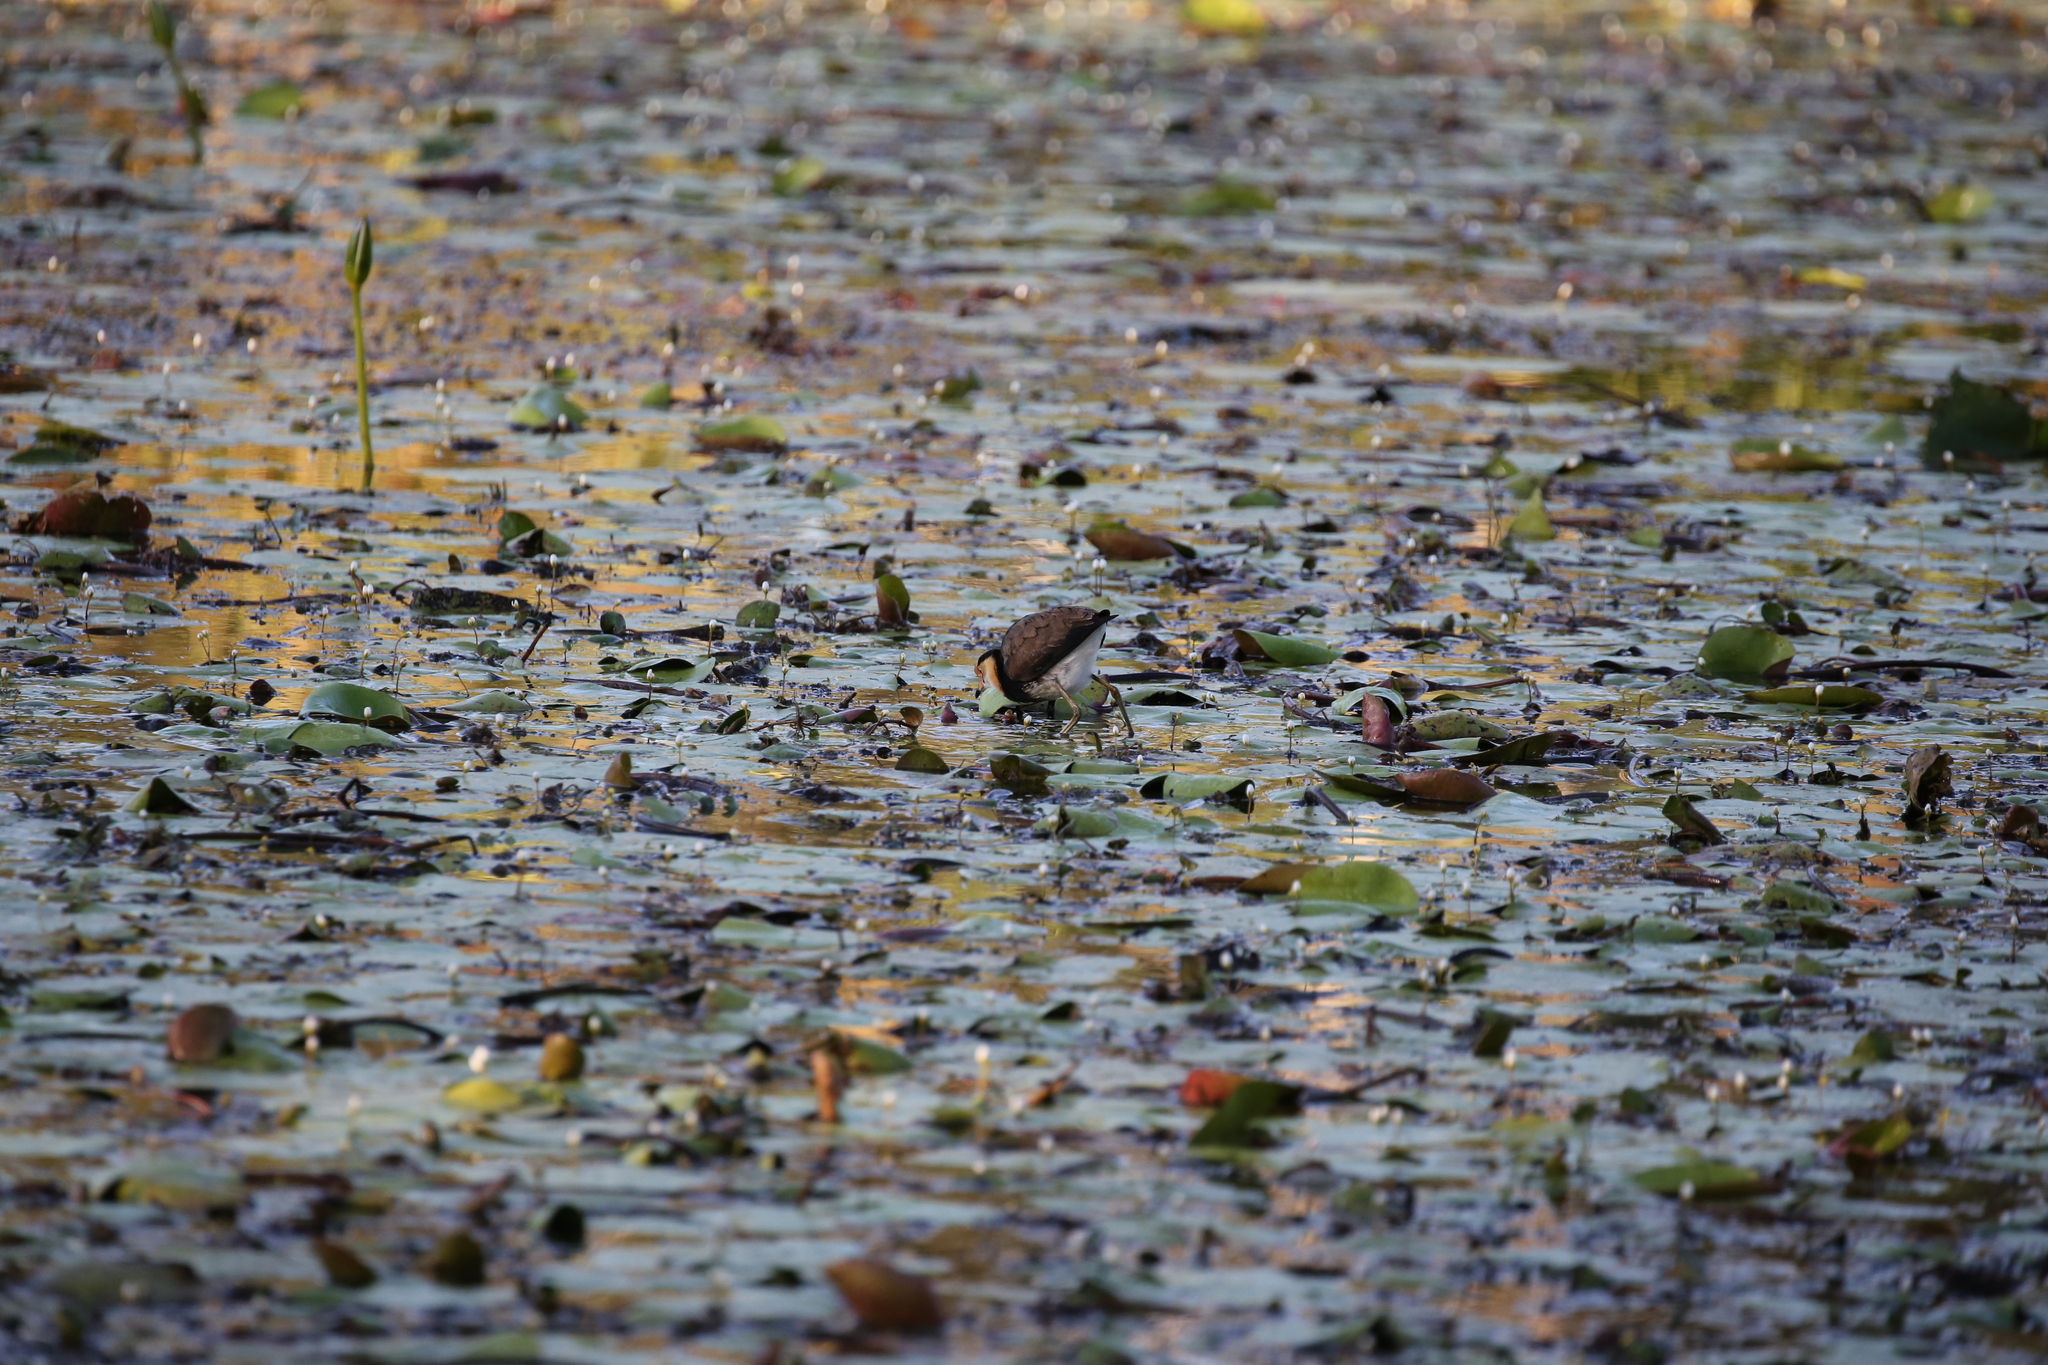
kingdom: Animalia
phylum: Chordata
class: Aves
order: Charadriiformes
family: Jacanidae
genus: Irediparra
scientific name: Irediparra gallinacea
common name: Comb-crested jacana
